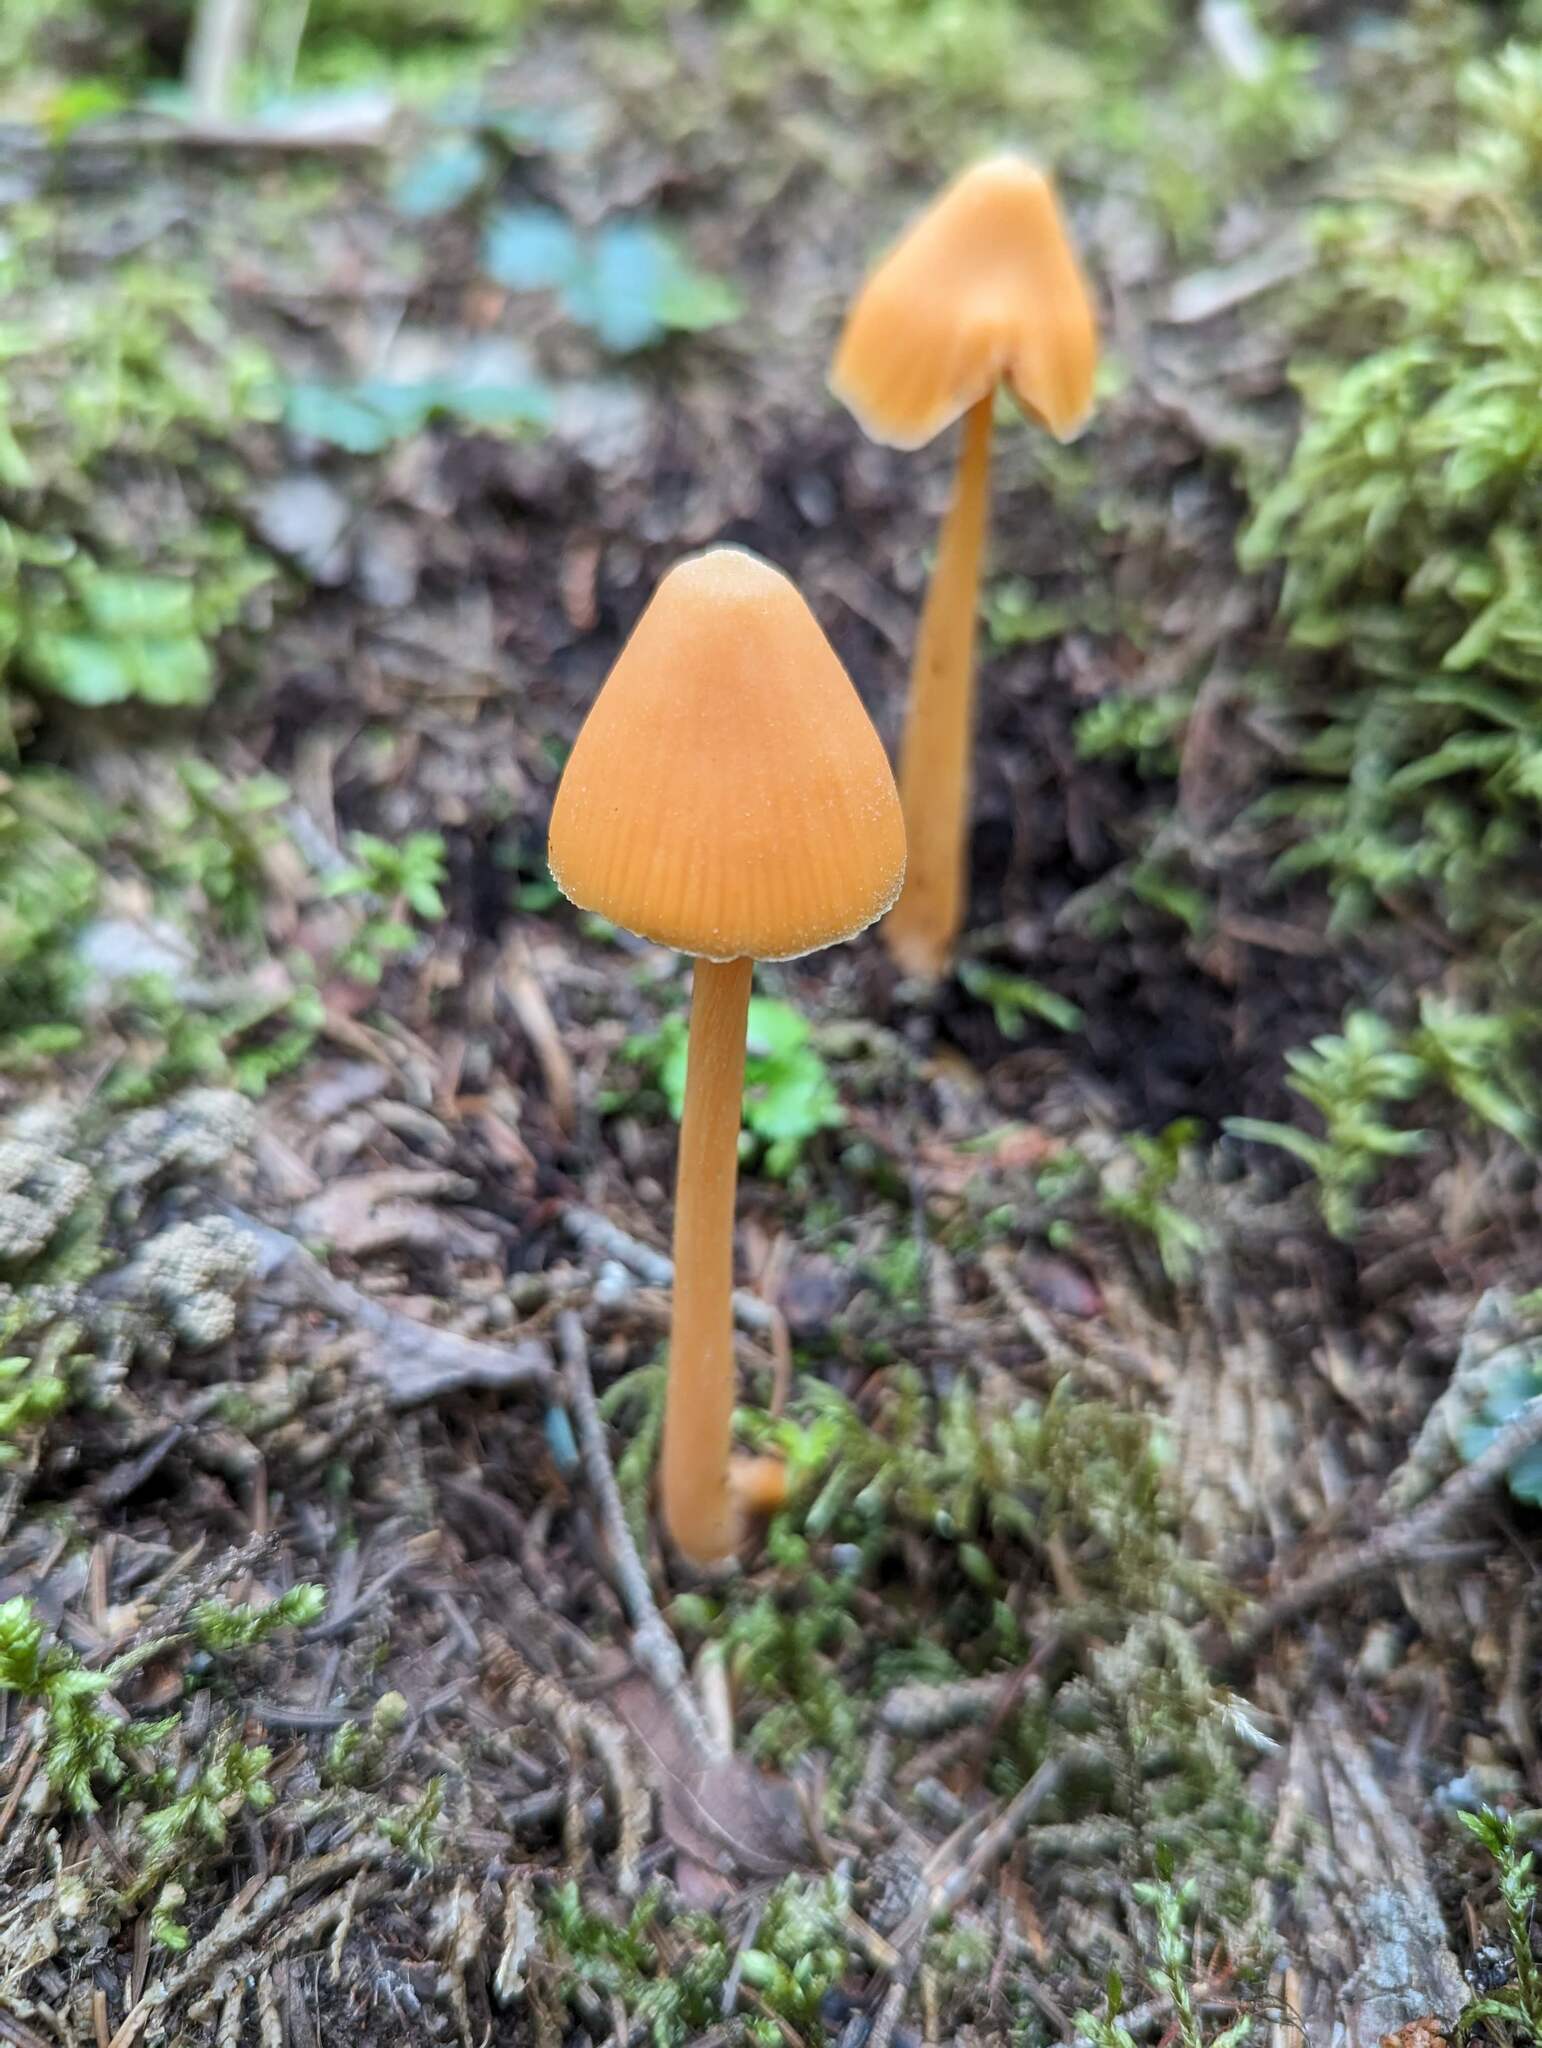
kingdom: Fungi
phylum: Basidiomycota
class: Agaricomycetes
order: Agaricales
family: Entolomataceae
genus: Entoloma
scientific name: Entoloma quadratum
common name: Salmon pinkgill
